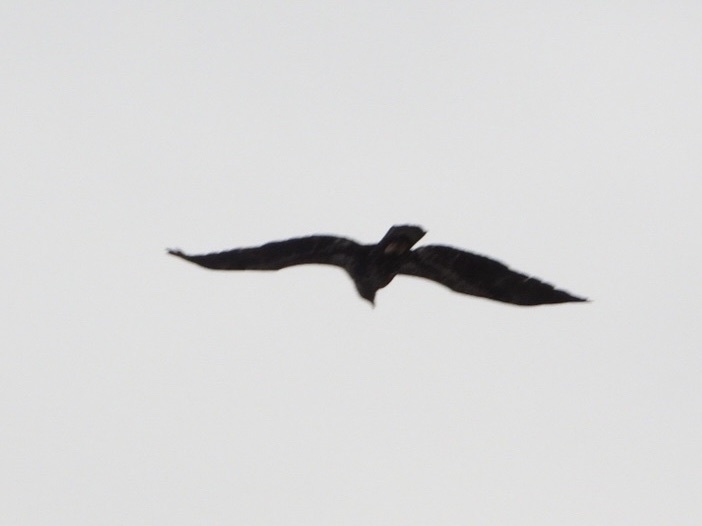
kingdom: Animalia
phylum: Chordata
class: Aves
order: Accipitriformes
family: Accipitridae
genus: Haliaeetus
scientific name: Haliaeetus leucocephalus
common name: Bald eagle
